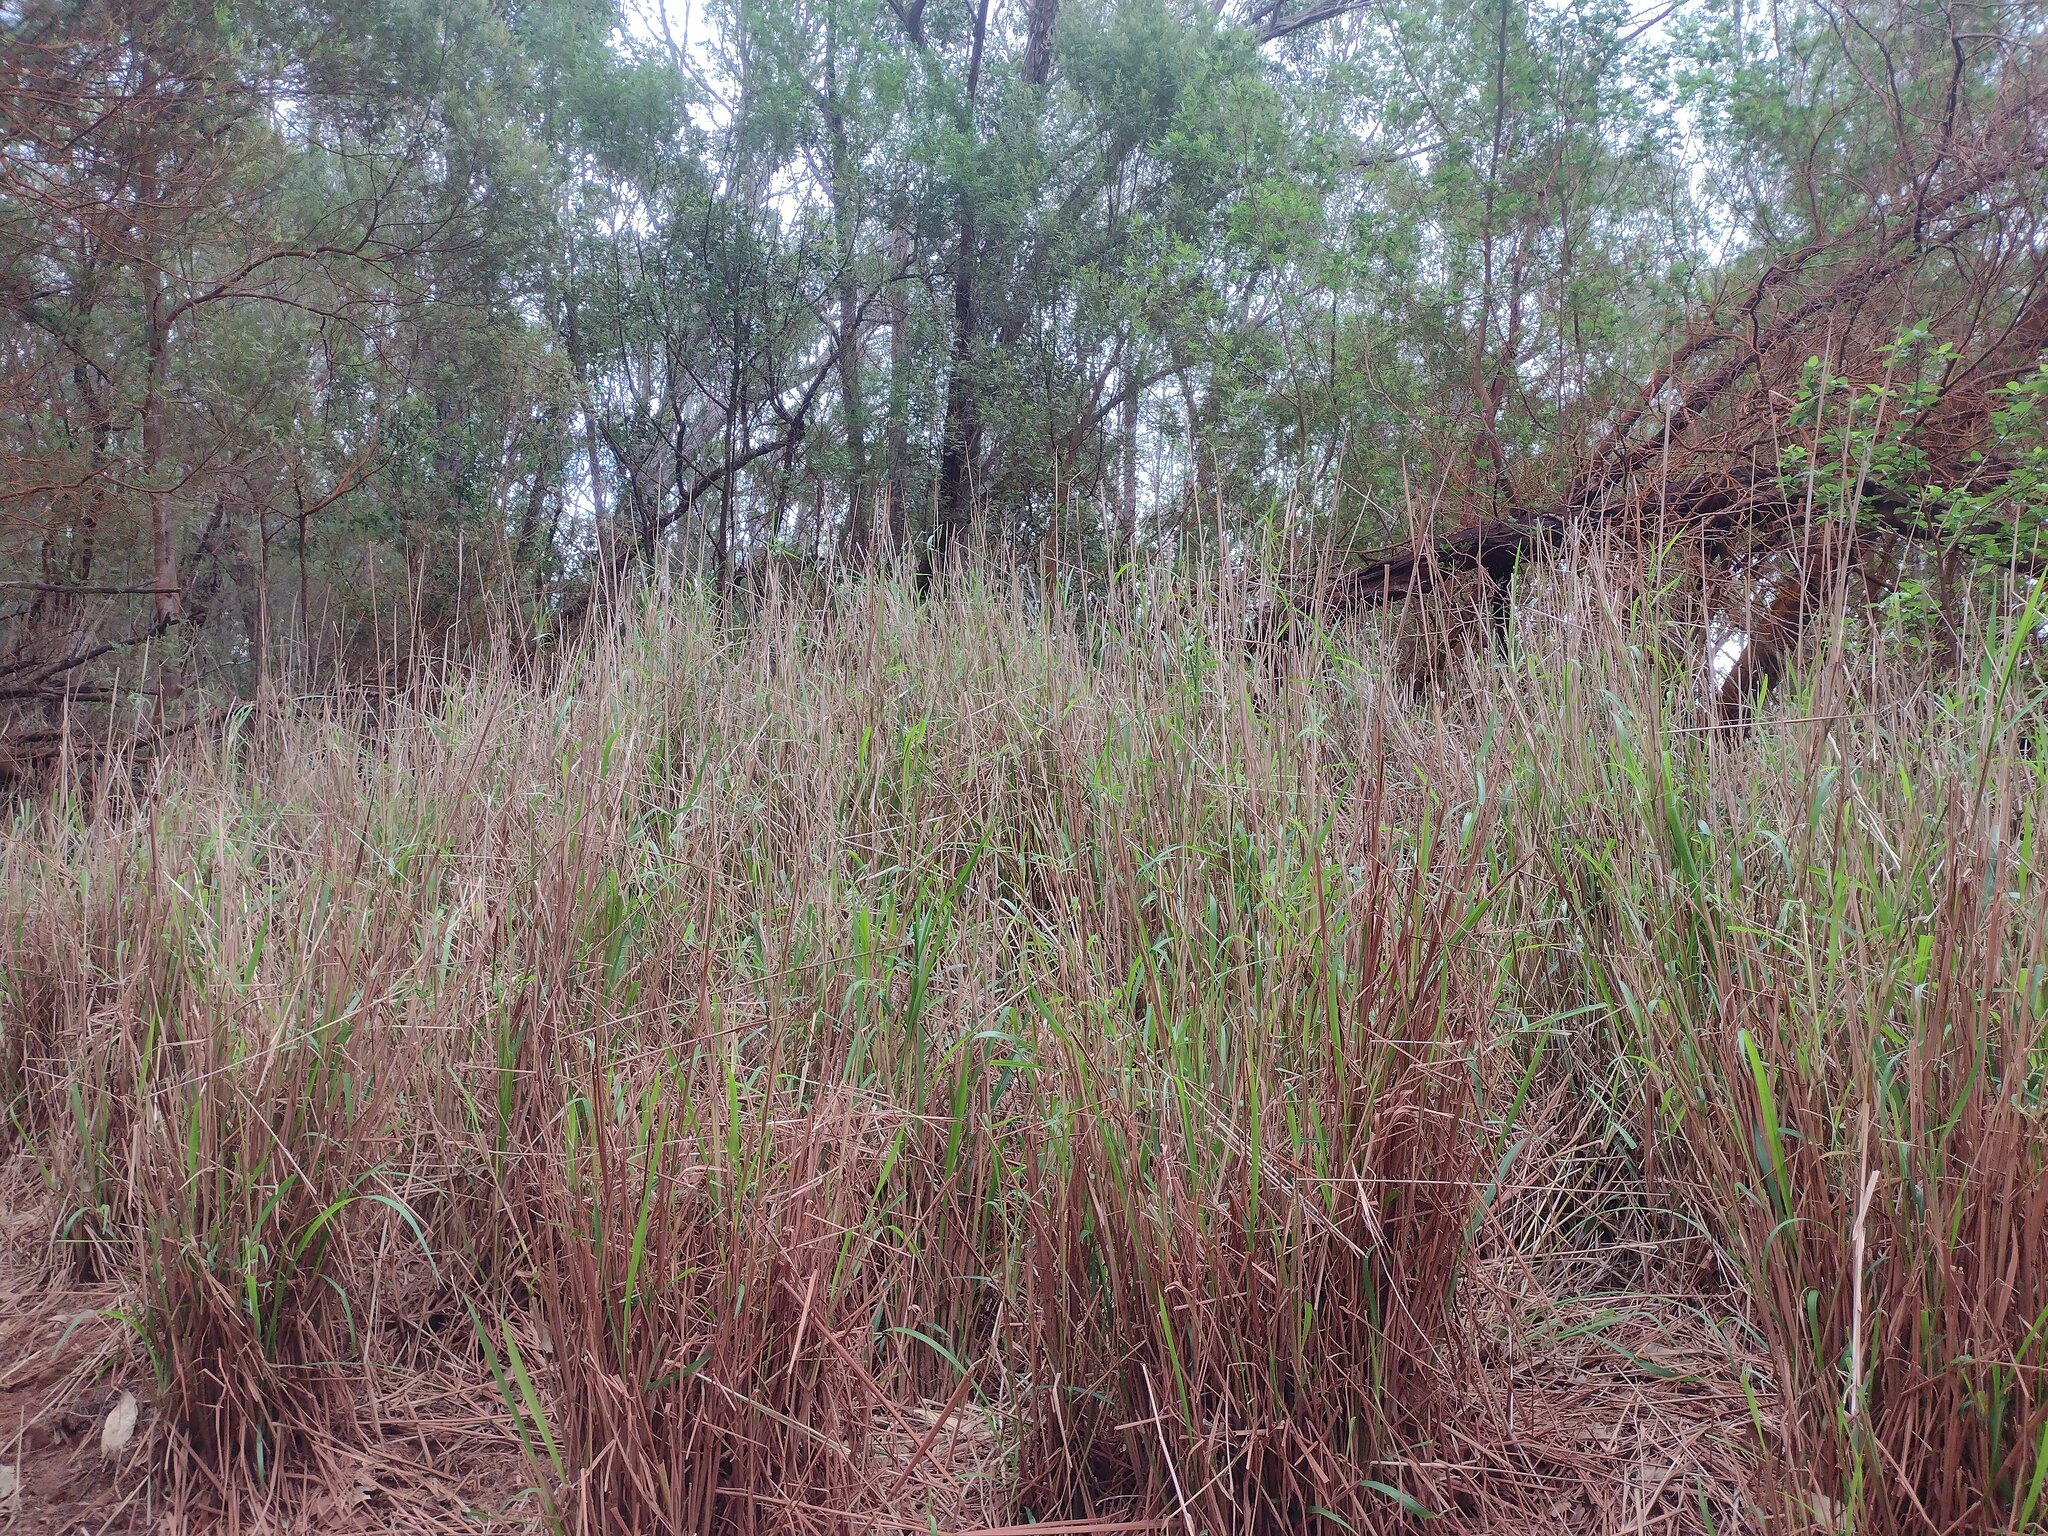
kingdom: Plantae
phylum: Tracheophyta
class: Liliopsida
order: Poales
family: Poaceae
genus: Megathyrsus
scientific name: Megathyrsus maximus
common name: Guineagrass
